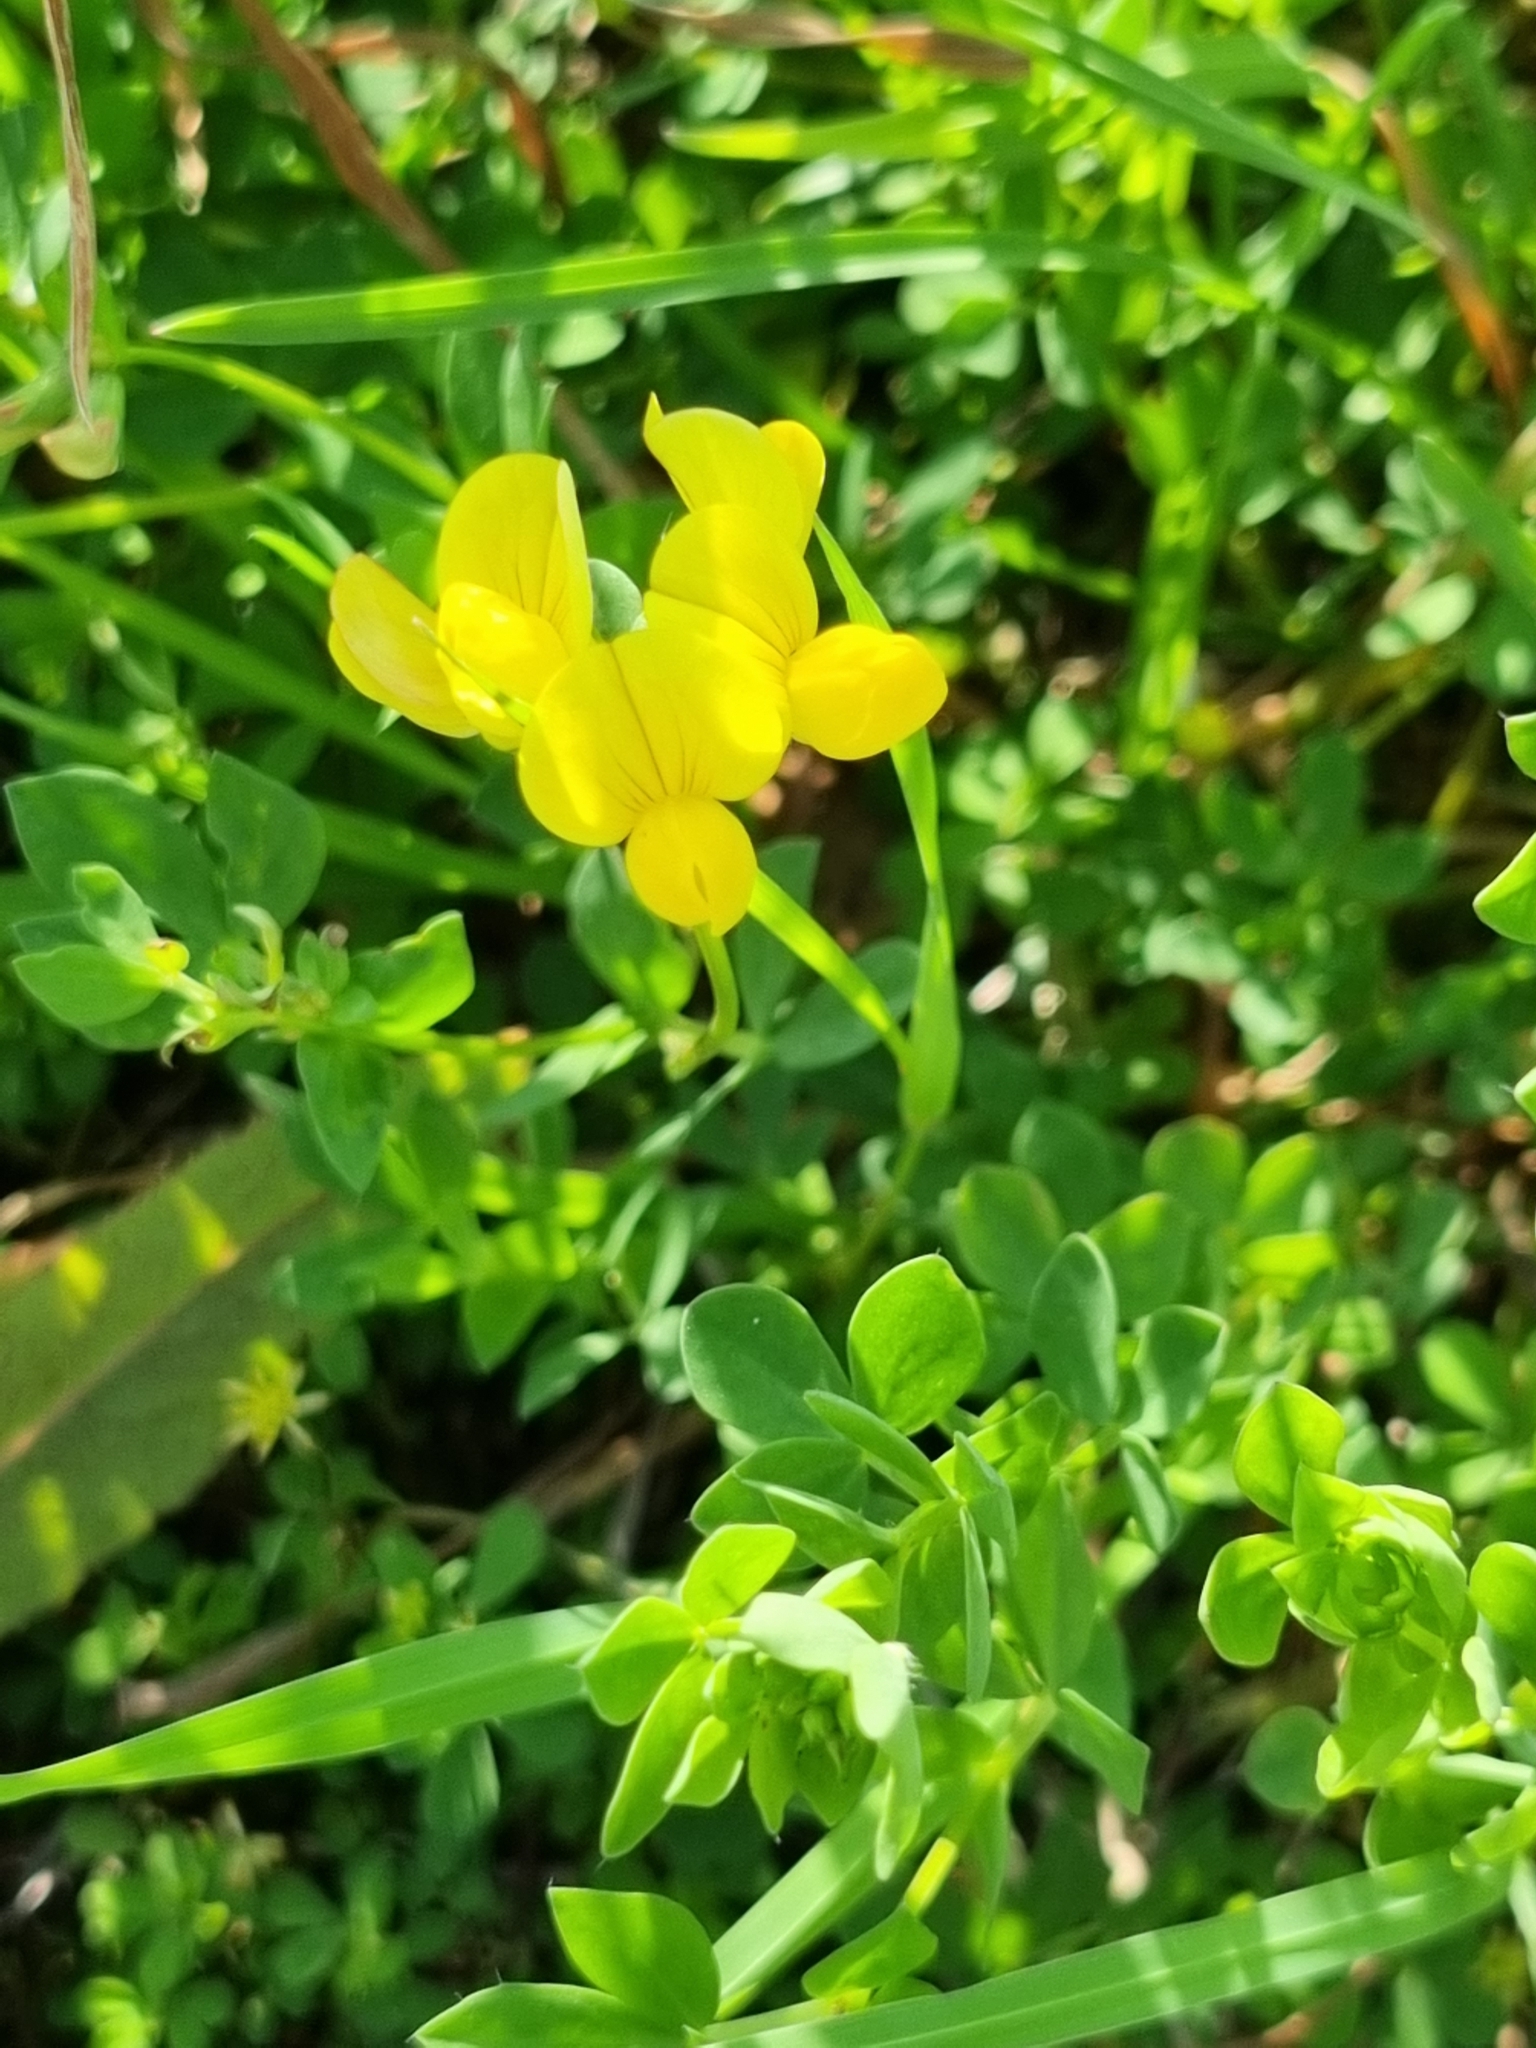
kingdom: Plantae
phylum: Tracheophyta
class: Magnoliopsida
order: Fabales
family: Fabaceae
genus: Lotus
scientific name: Lotus corniculatus
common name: Common bird's-foot-trefoil
